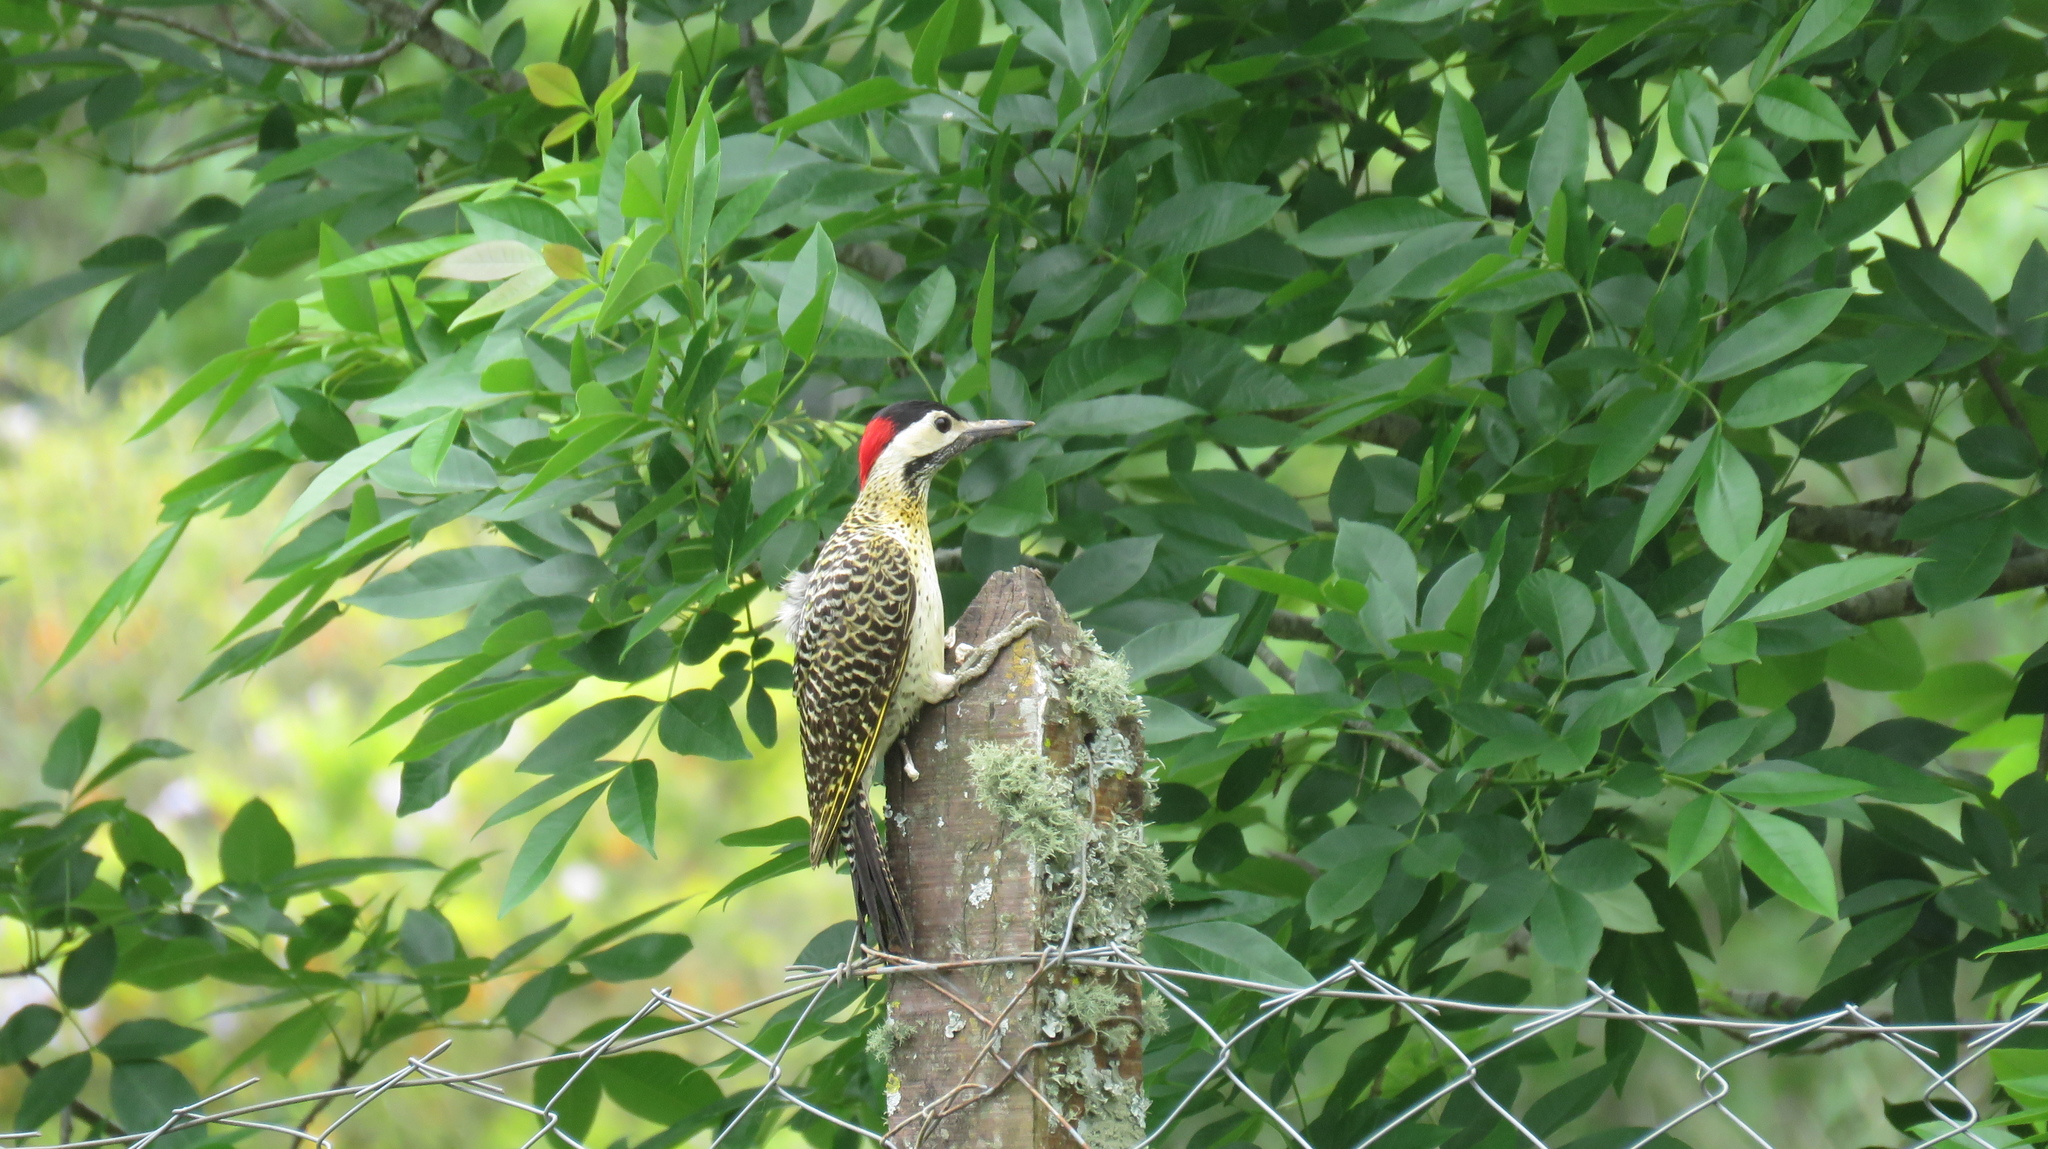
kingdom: Animalia
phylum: Chordata
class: Aves
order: Piciformes
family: Picidae
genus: Colaptes
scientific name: Colaptes melanochloros
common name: Green-barred woodpecker
